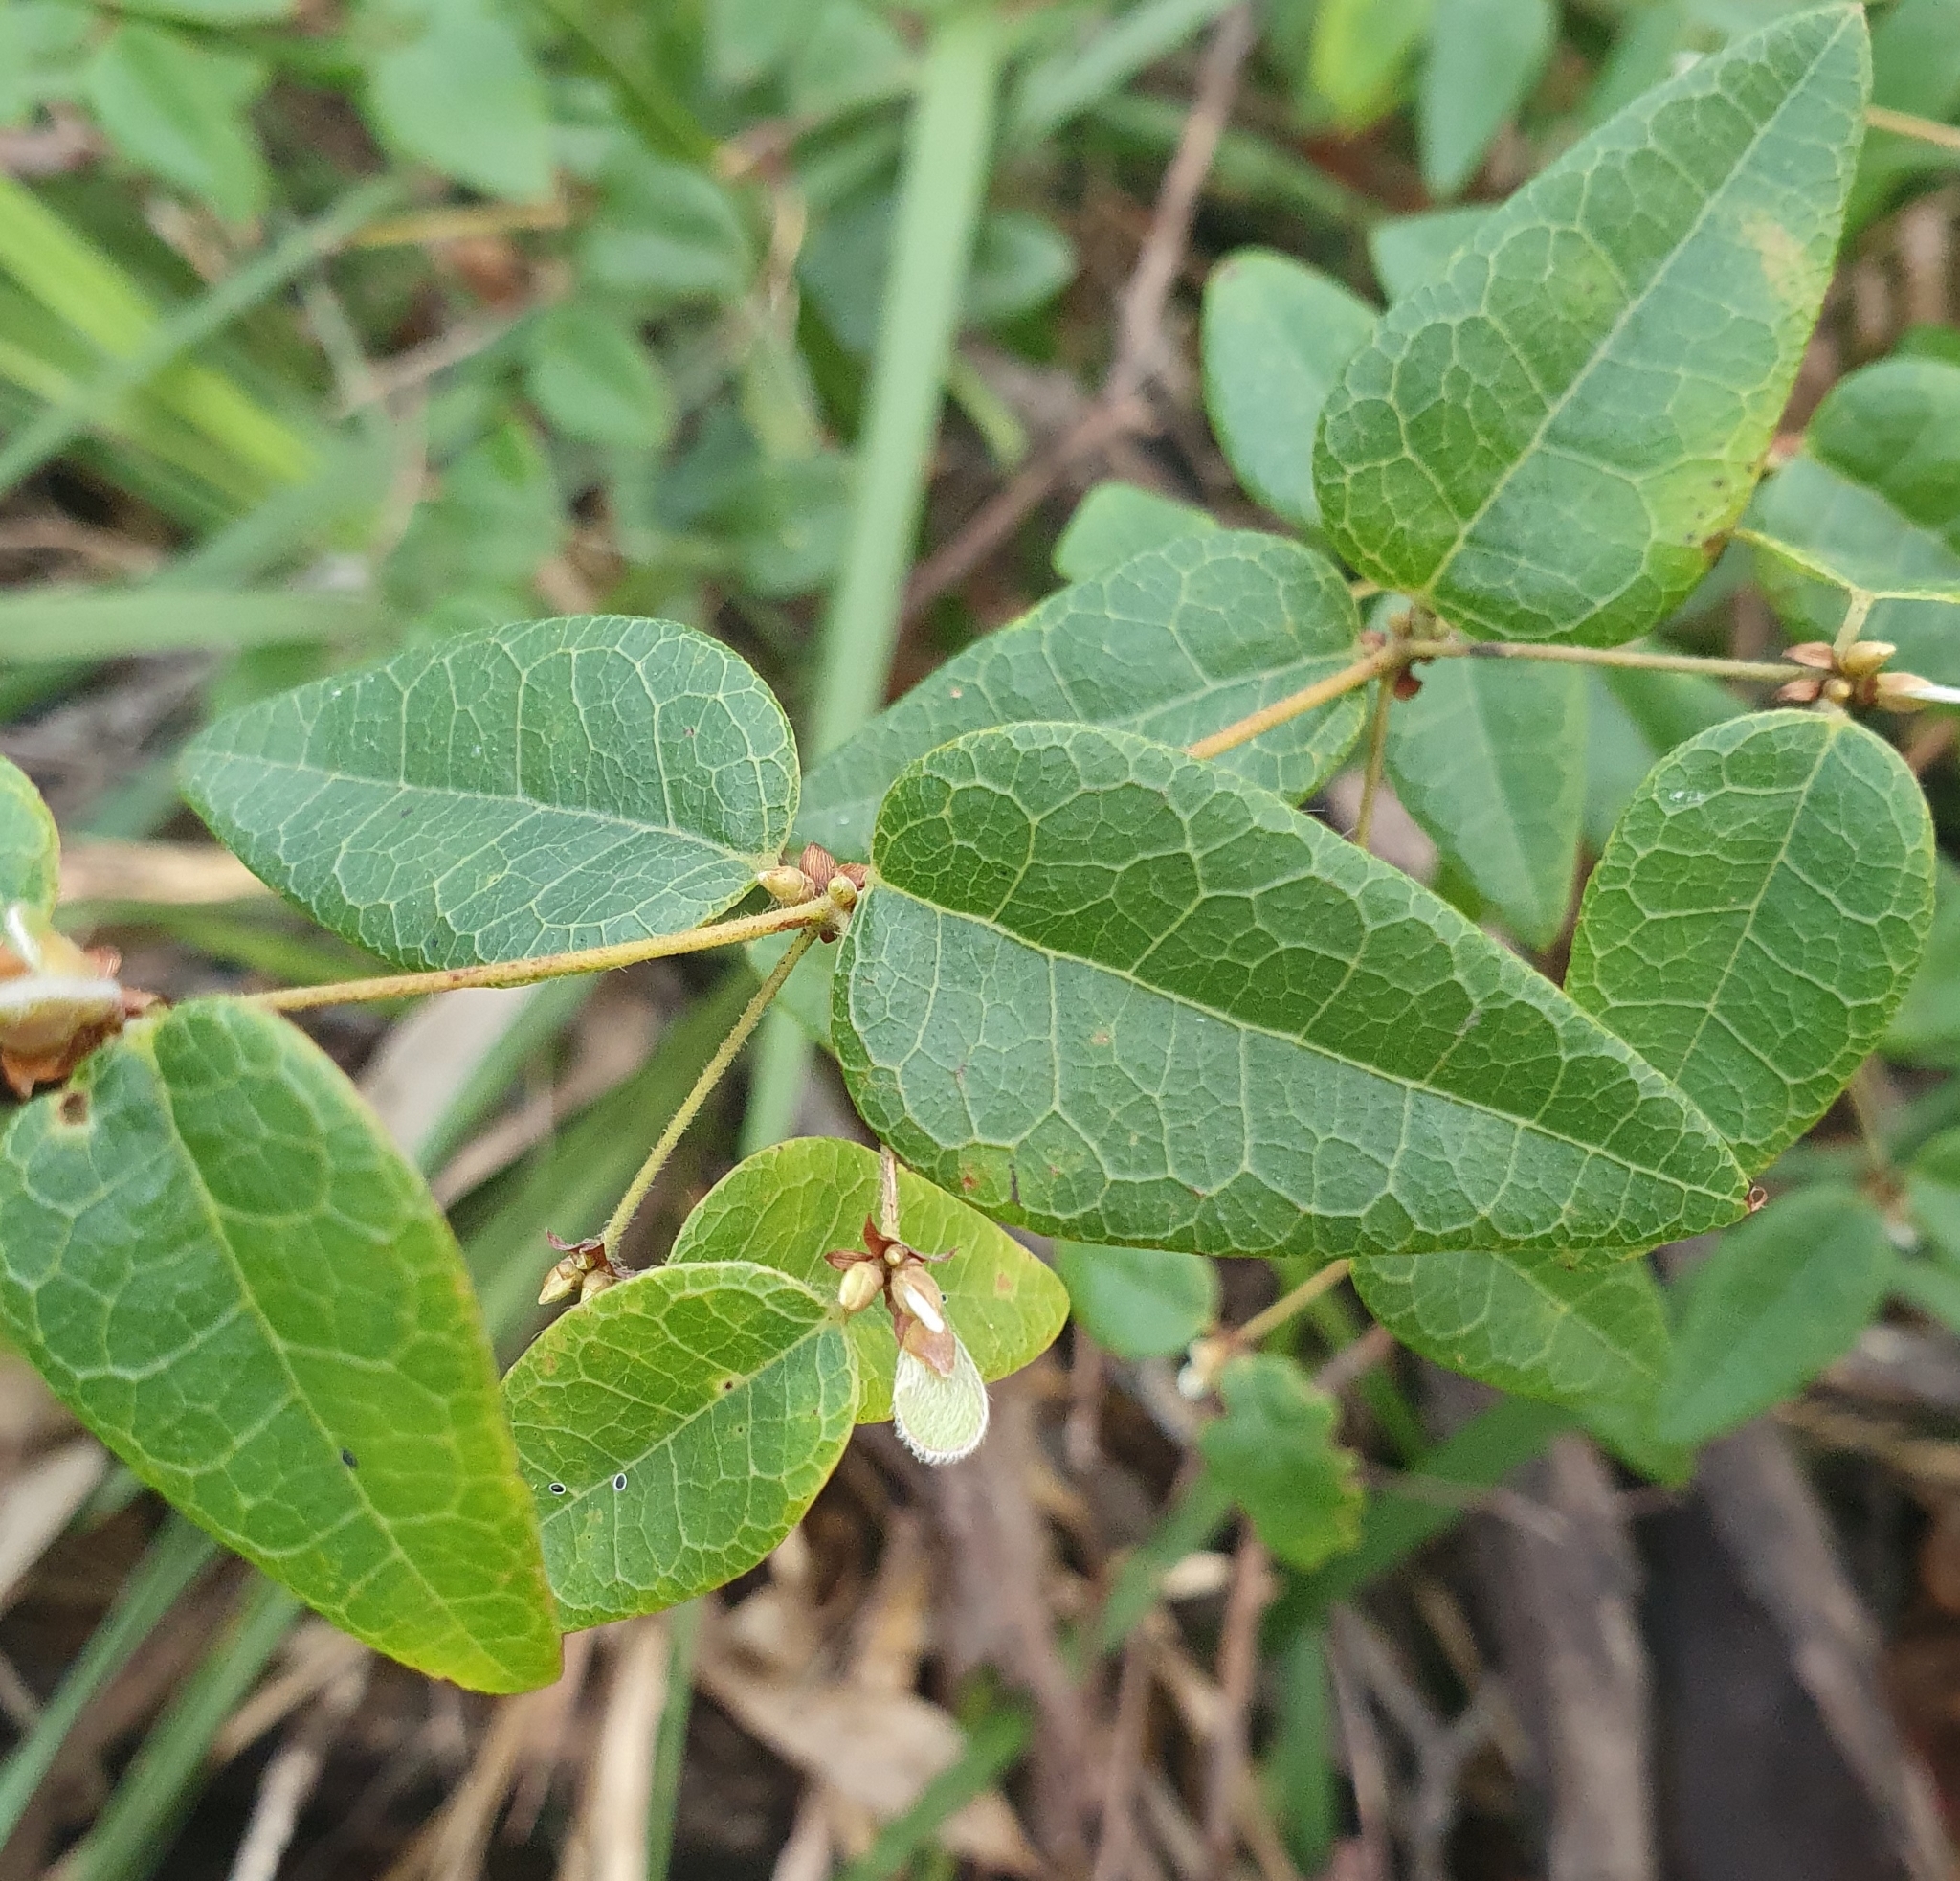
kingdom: Plantae
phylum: Tracheophyta
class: Magnoliopsida
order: Fabales
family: Fabaceae
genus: Platylobium
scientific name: Platylobium formosum
